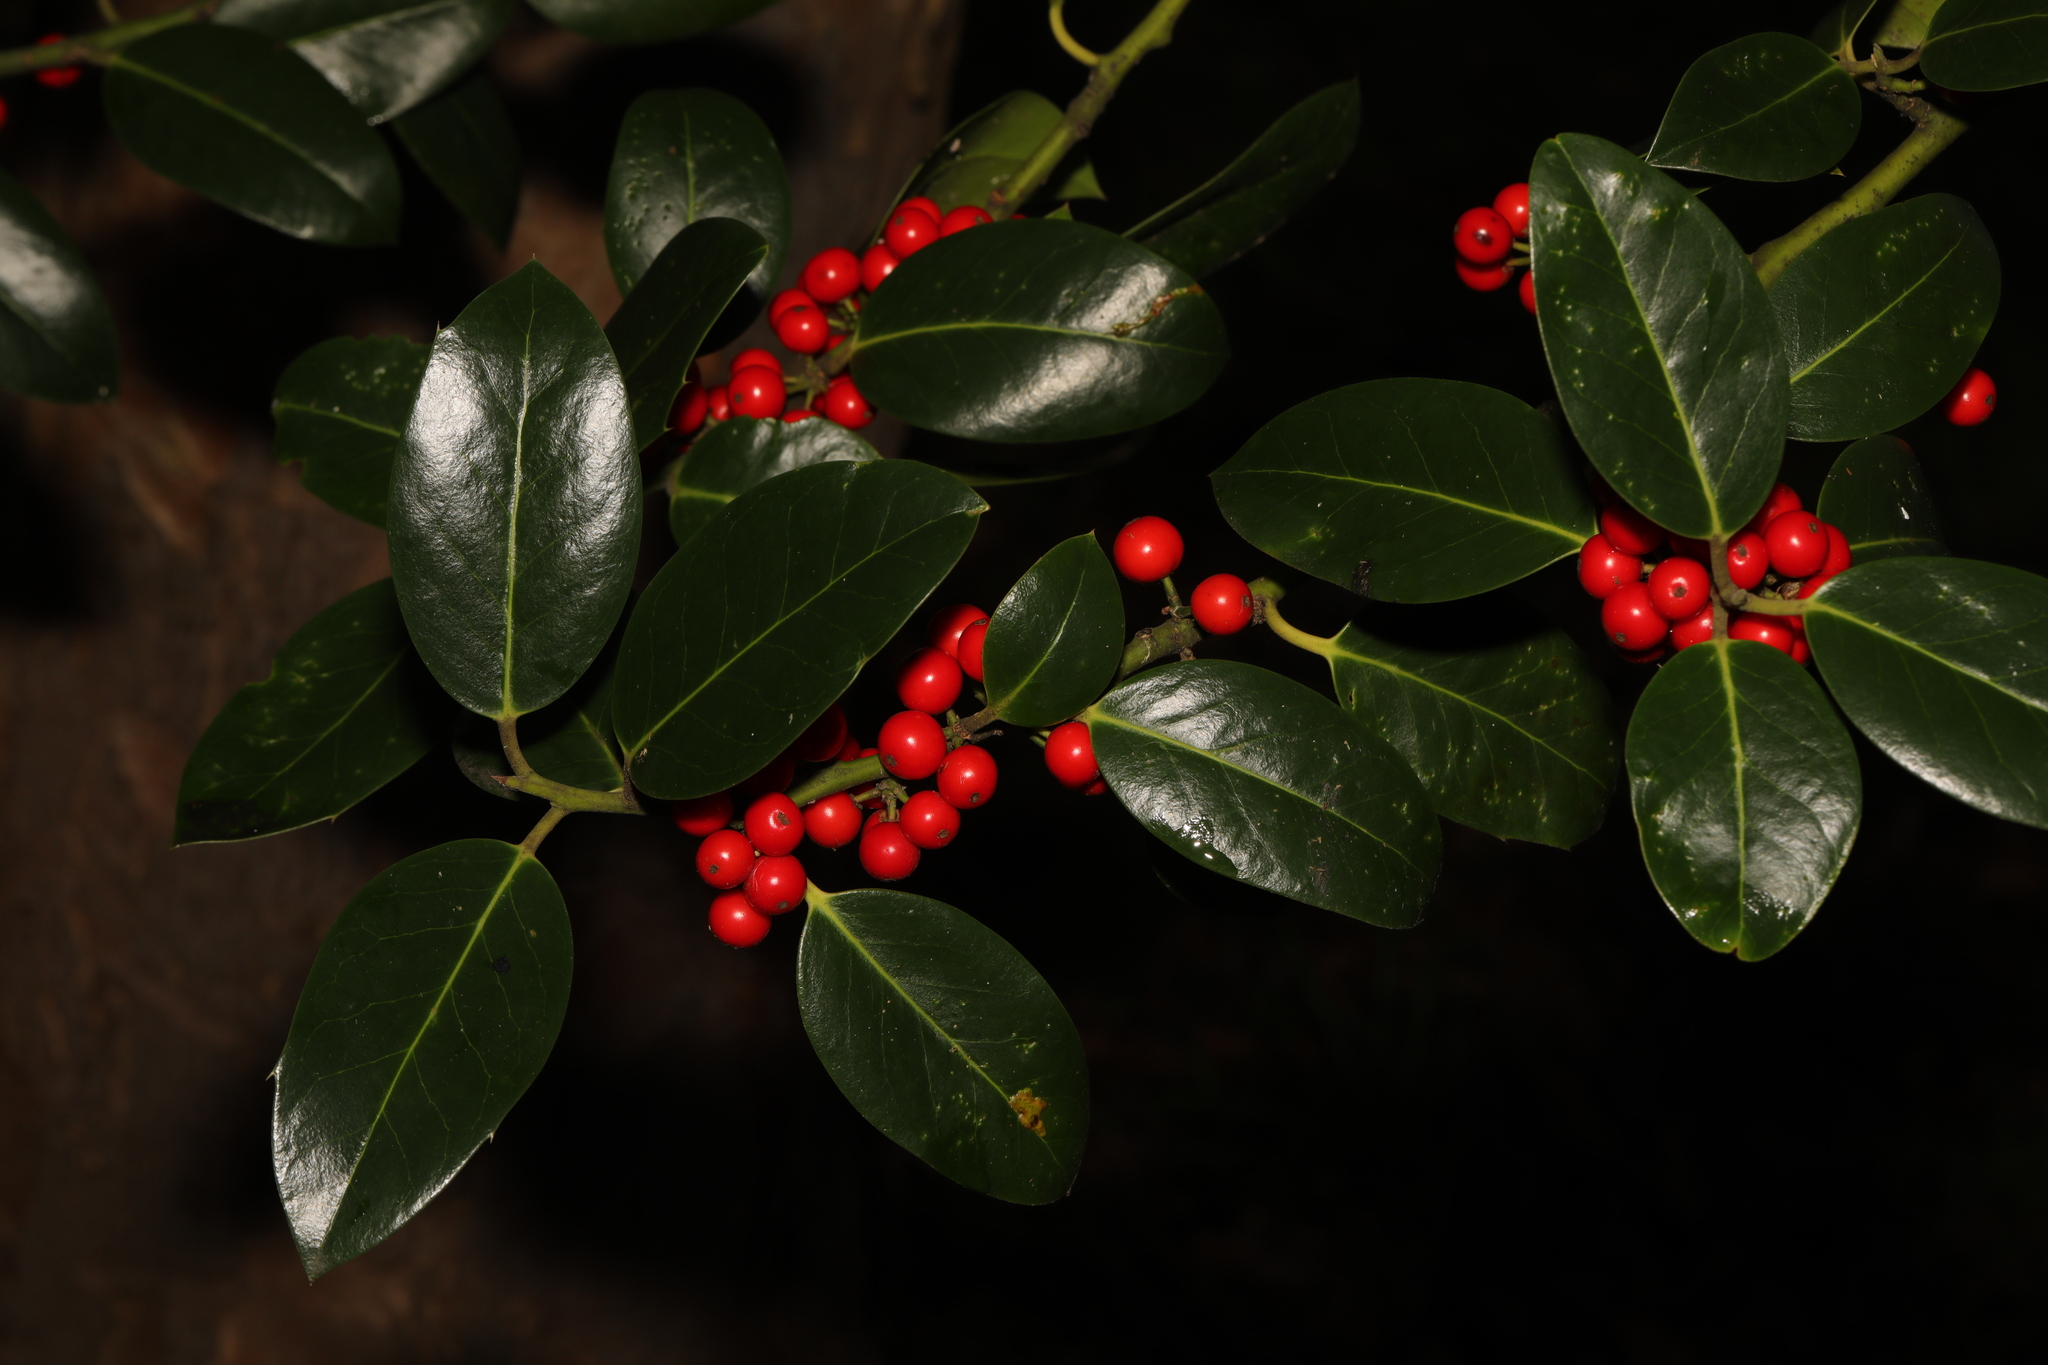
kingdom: Plantae
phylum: Tracheophyta
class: Magnoliopsida
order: Aquifoliales
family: Aquifoliaceae
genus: Ilex
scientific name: Ilex aquifolium
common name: English holly
